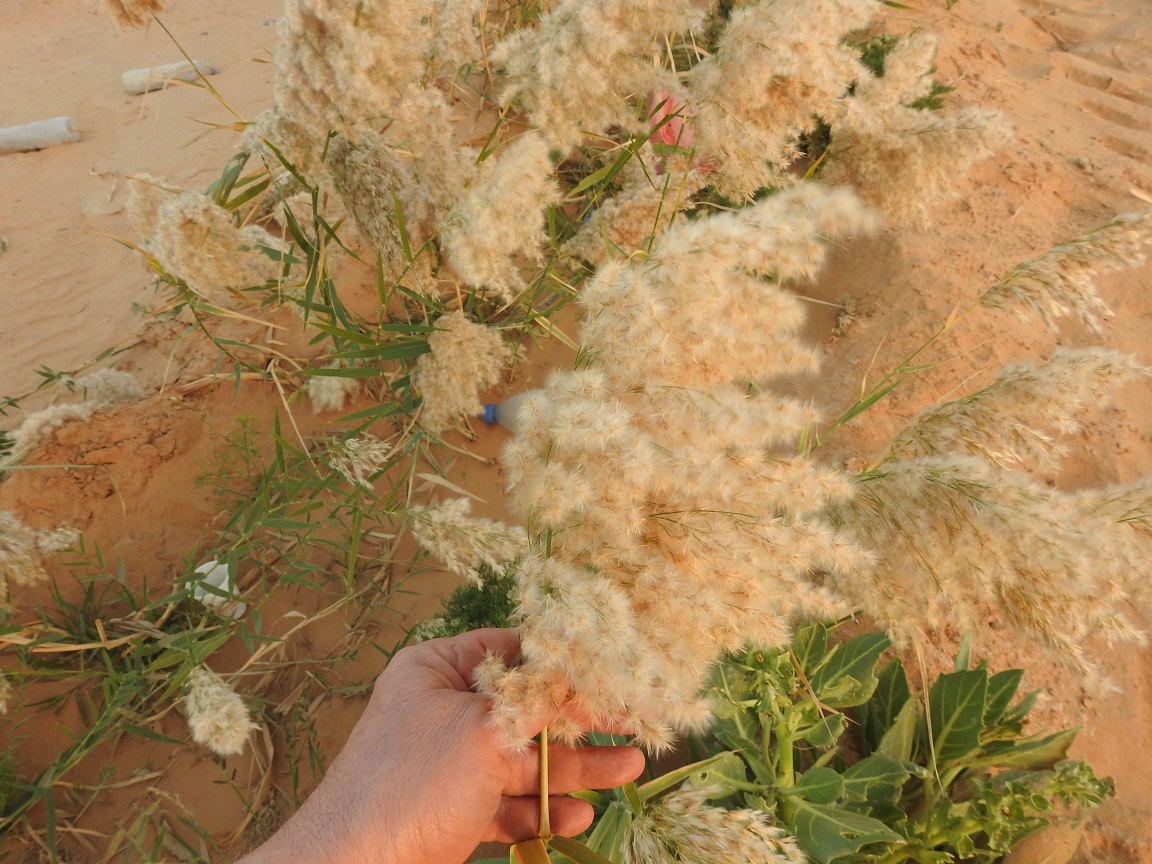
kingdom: Plantae
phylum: Tracheophyta
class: Liliopsida
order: Poales
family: Poaceae
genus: Phragmites
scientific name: Phragmites australis
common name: Common reed
